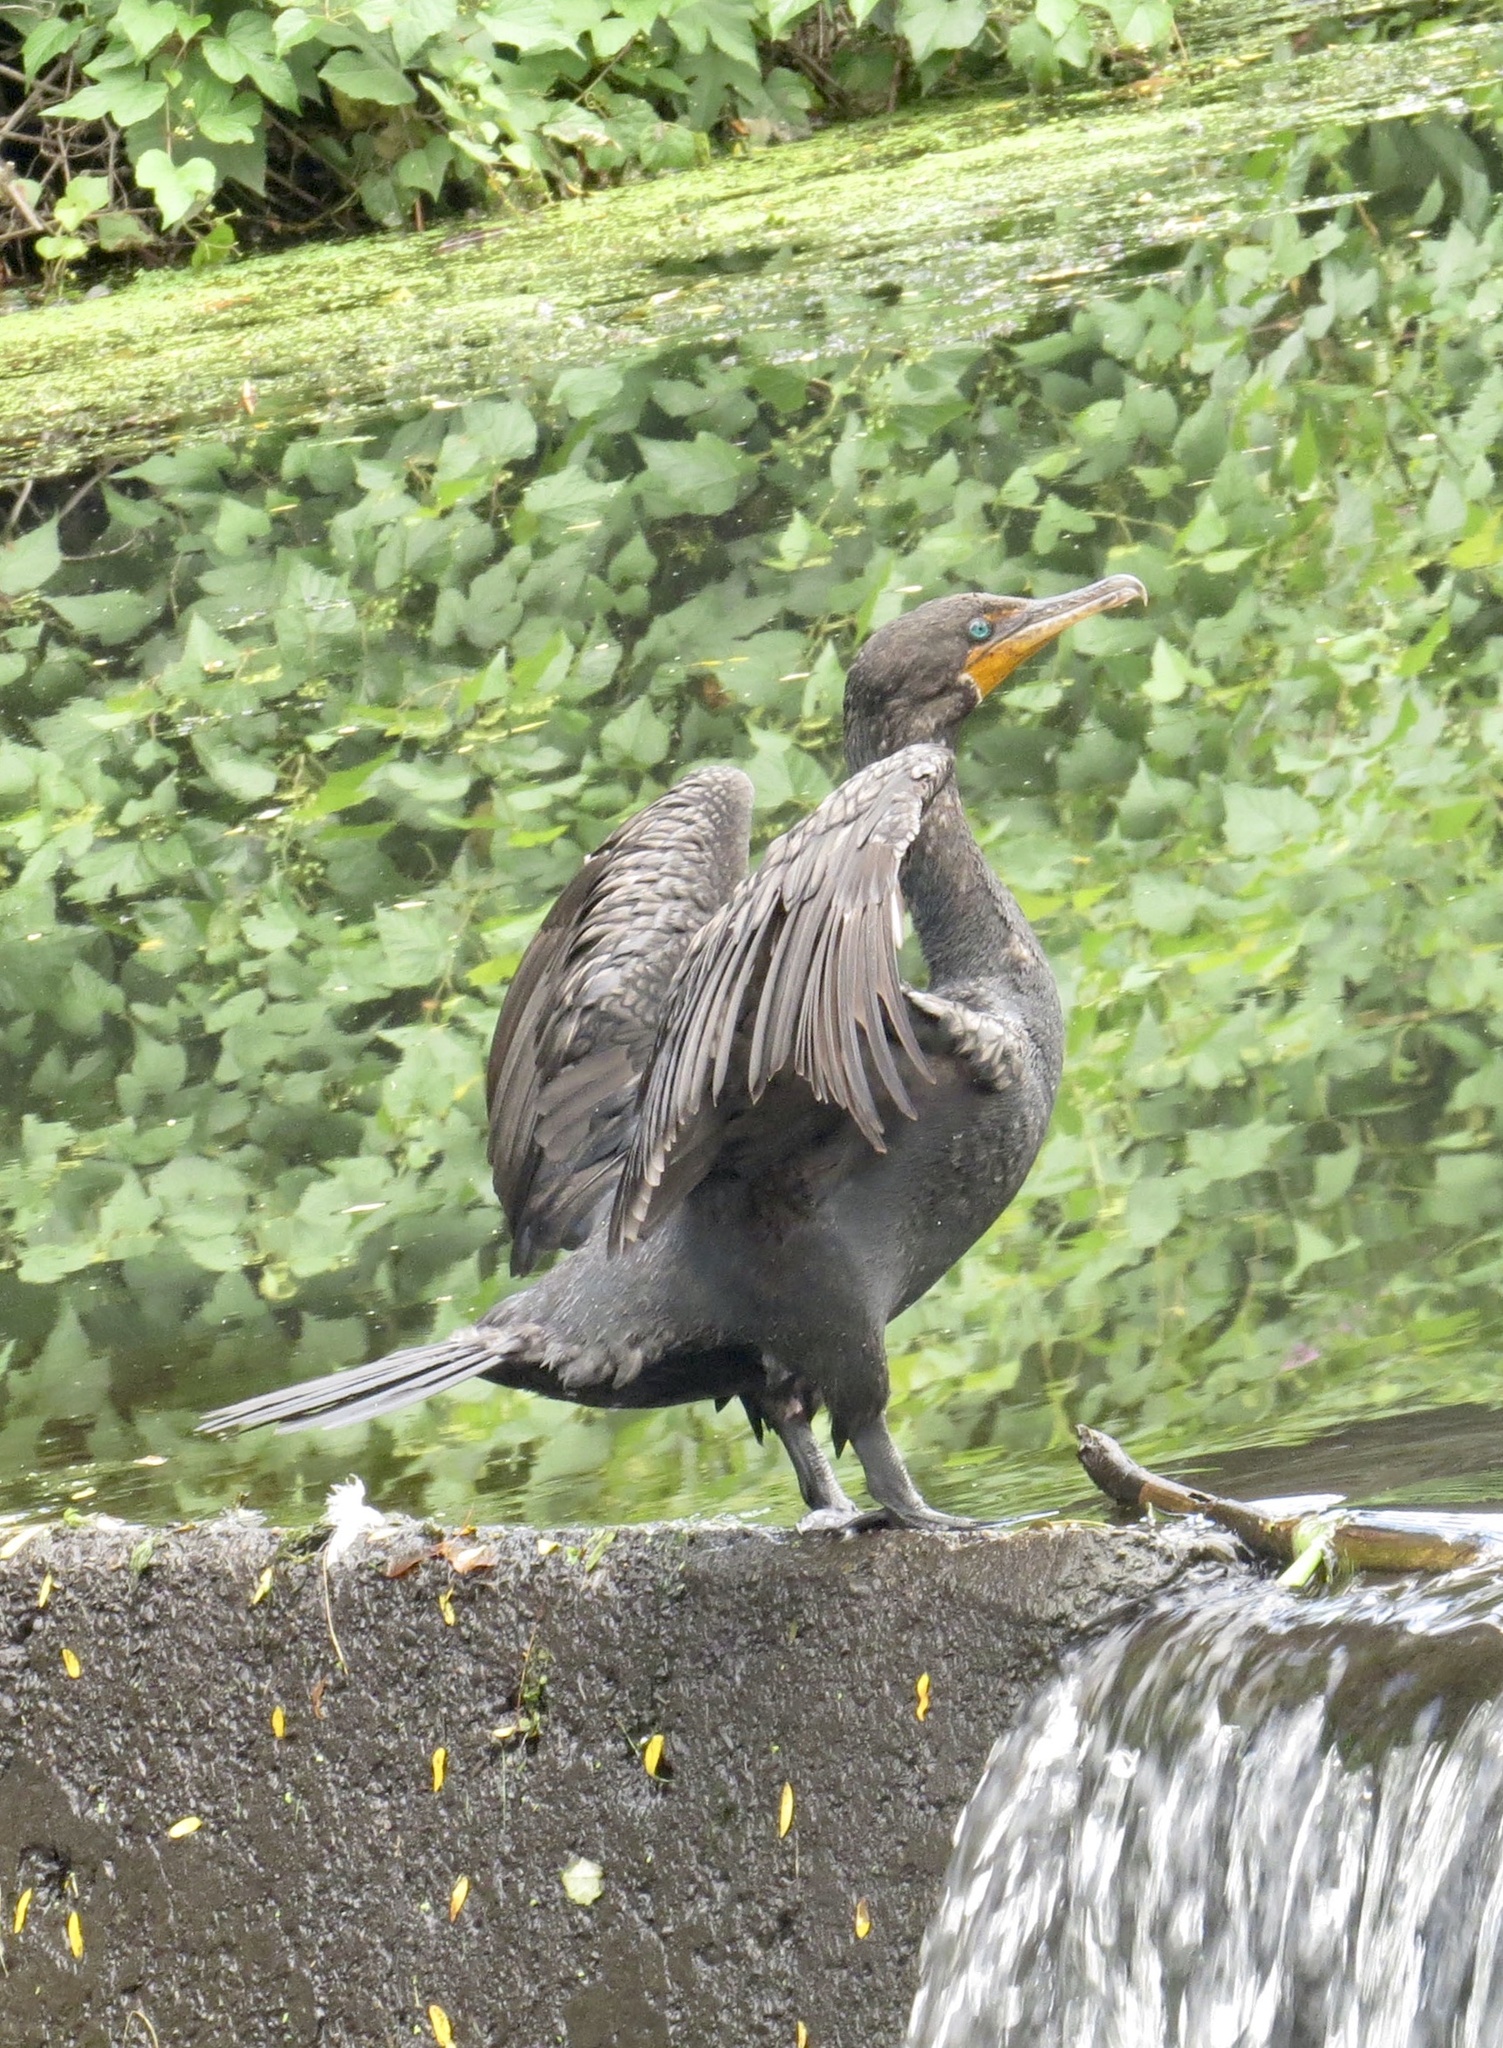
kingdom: Animalia
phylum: Chordata
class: Aves
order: Suliformes
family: Phalacrocoracidae
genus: Phalacrocorax
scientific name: Phalacrocorax auritus
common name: Double-crested cormorant
